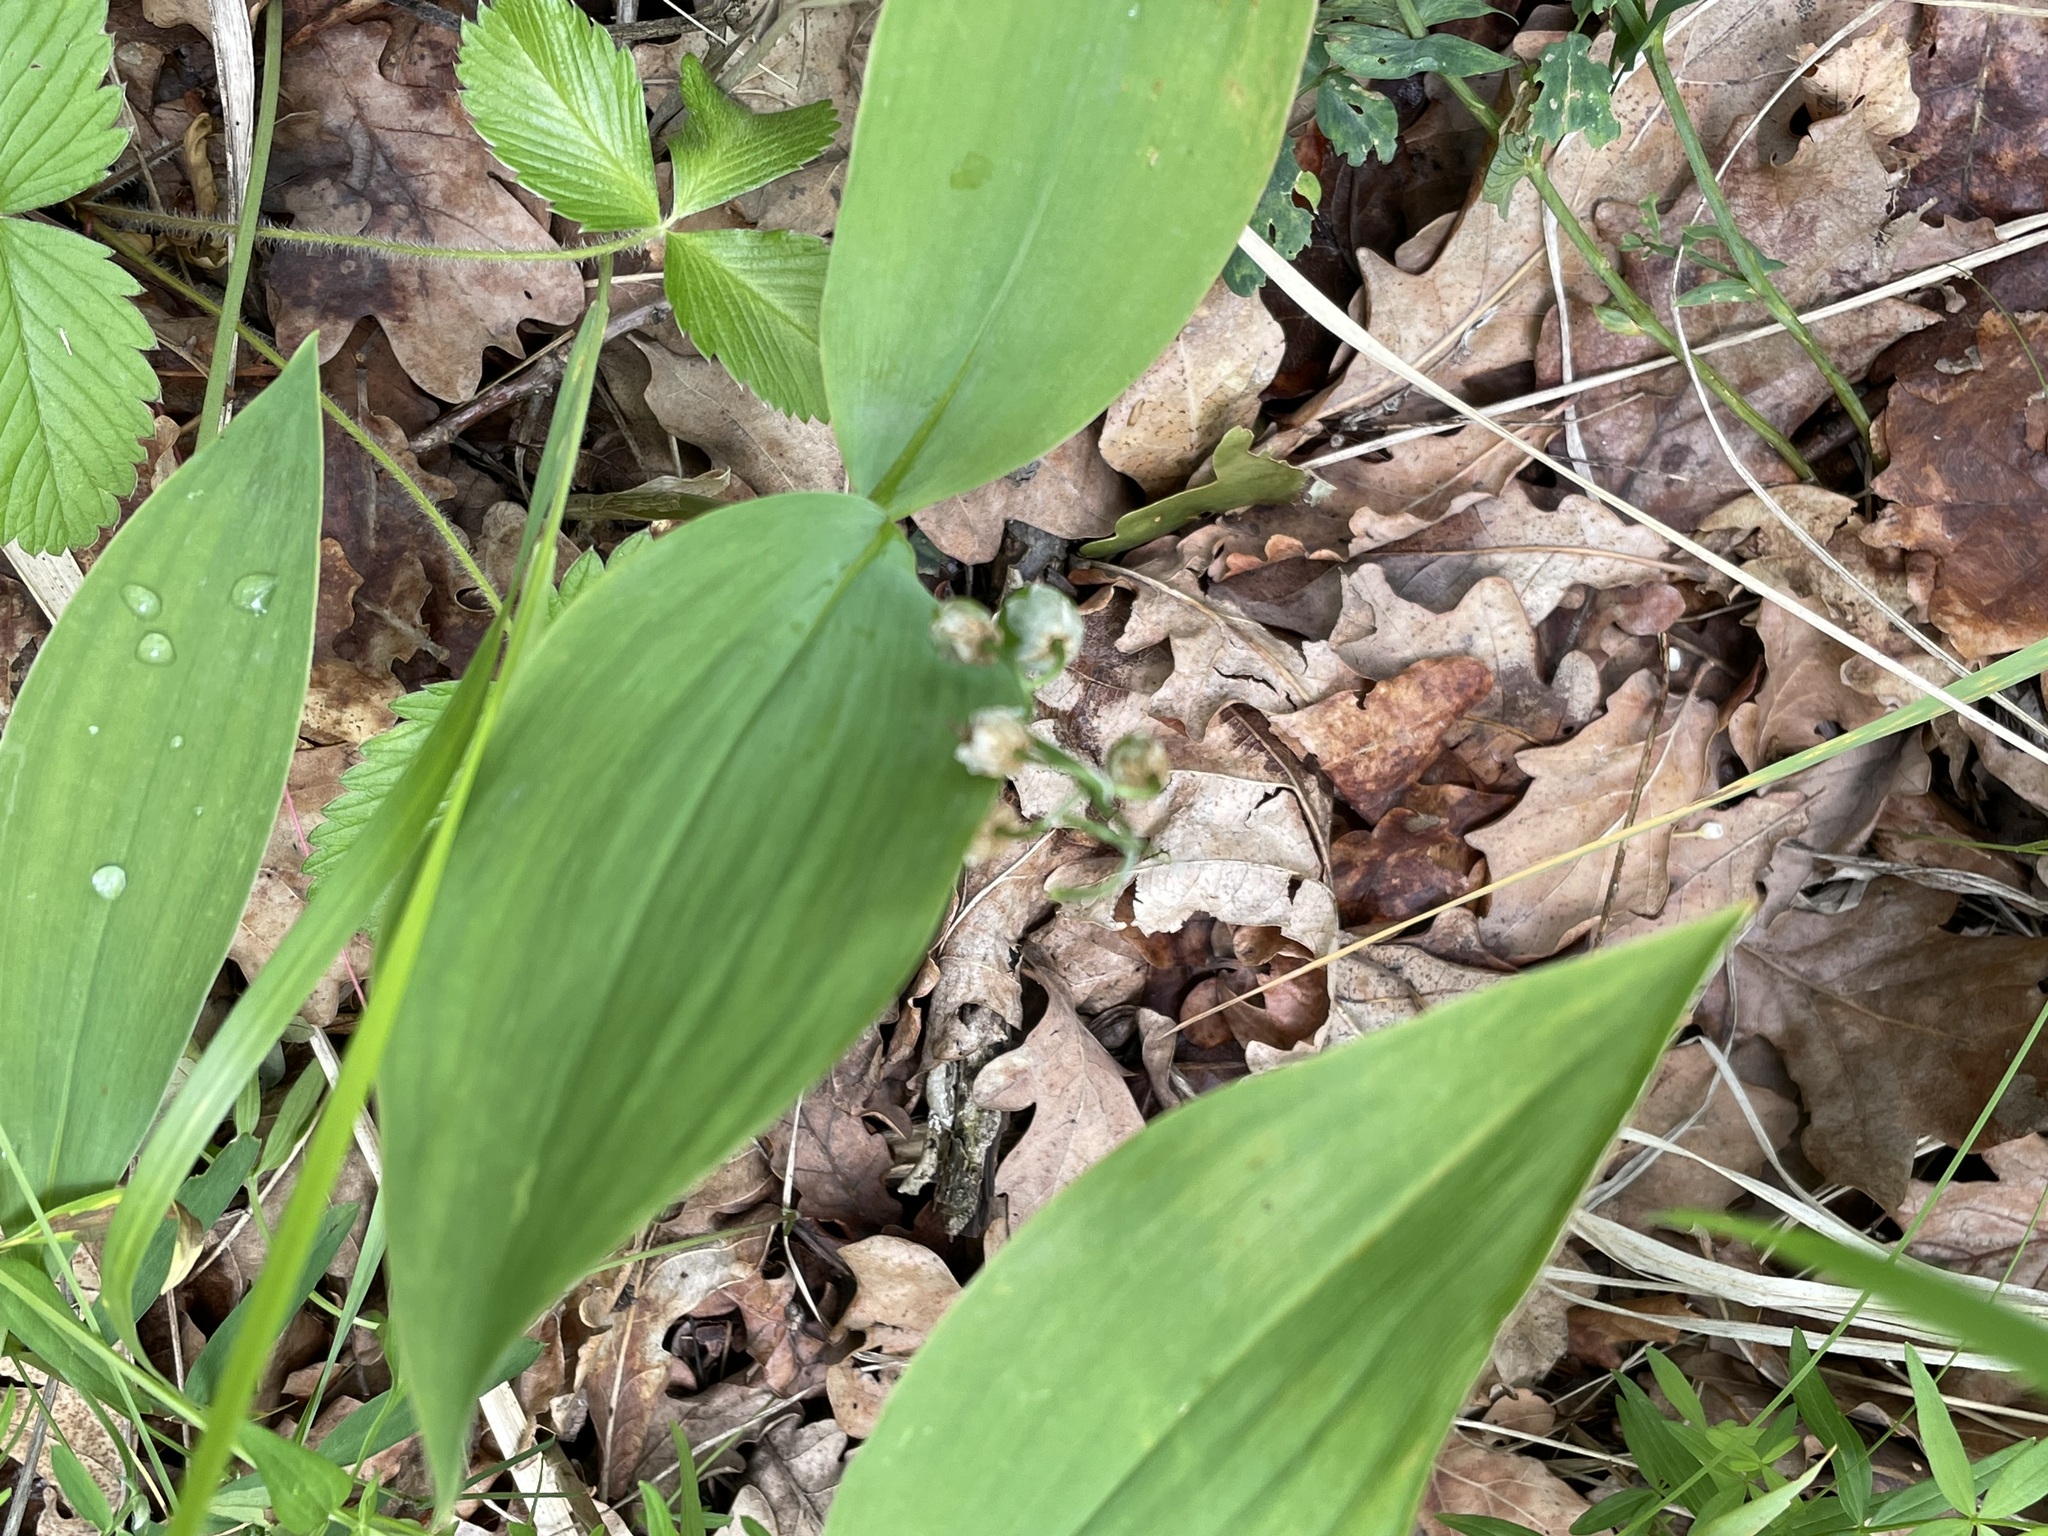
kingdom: Plantae
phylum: Tracheophyta
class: Liliopsida
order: Asparagales
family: Asparagaceae
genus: Convallaria
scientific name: Convallaria majalis
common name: Lily-of-the-valley
